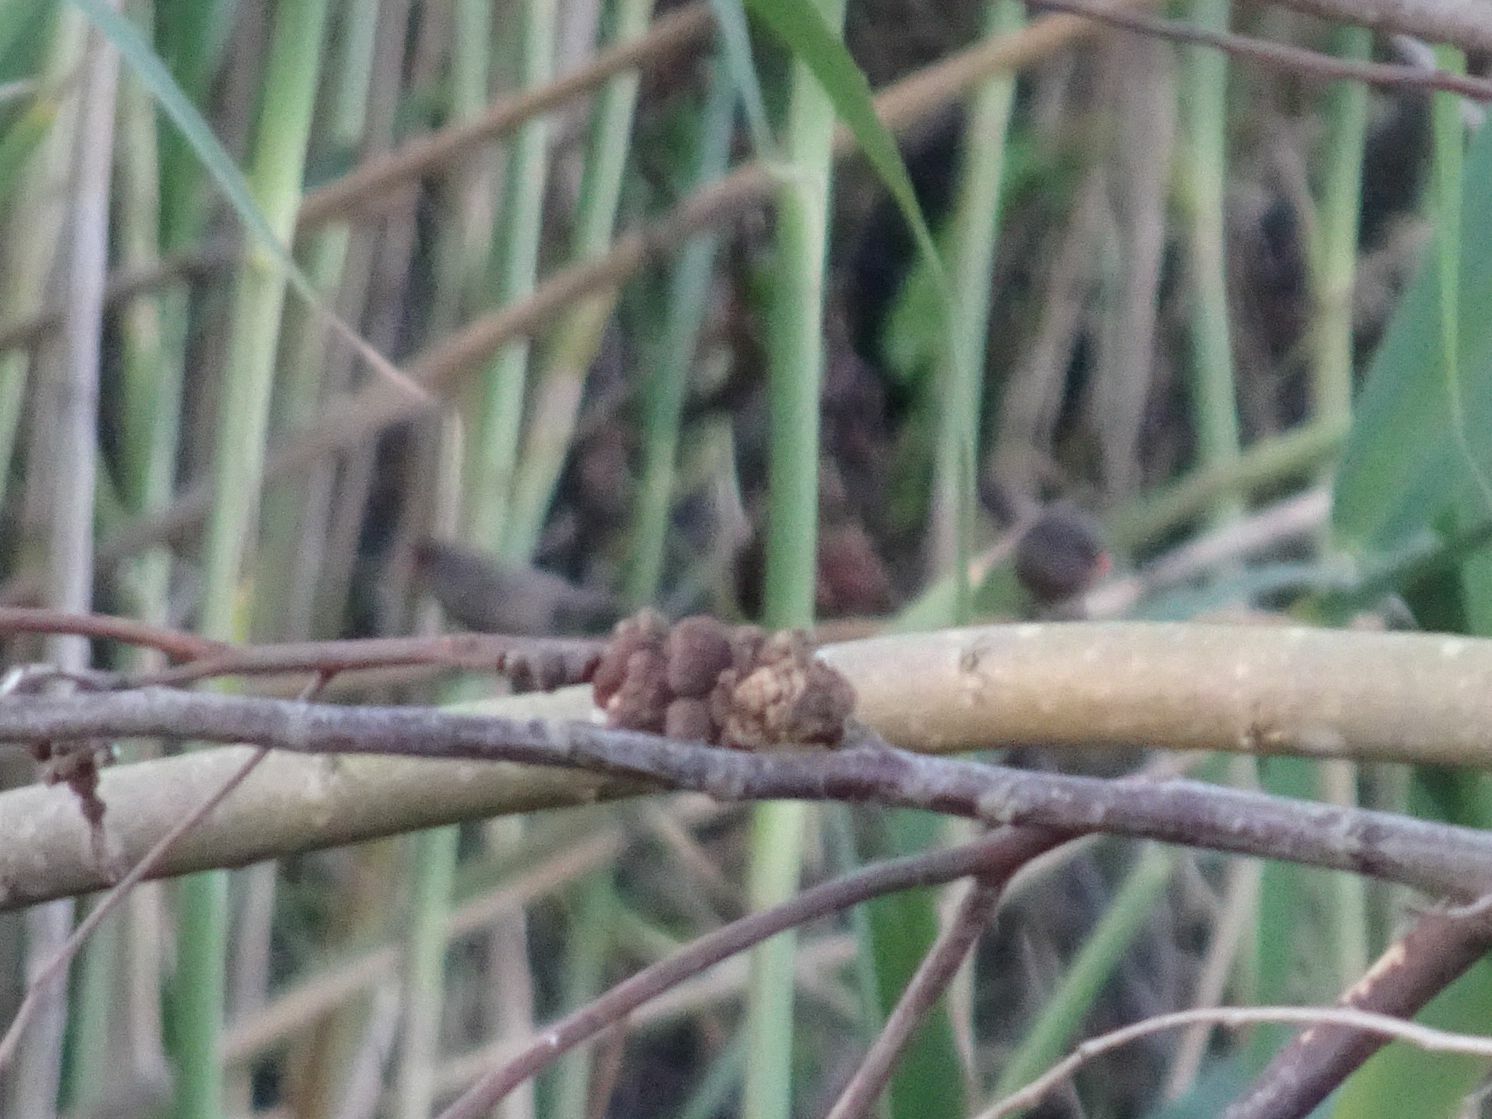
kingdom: Animalia
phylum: Chordata
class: Aves
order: Passeriformes
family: Estrildidae
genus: Estrilda
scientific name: Estrilda astrild
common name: Common waxbill
